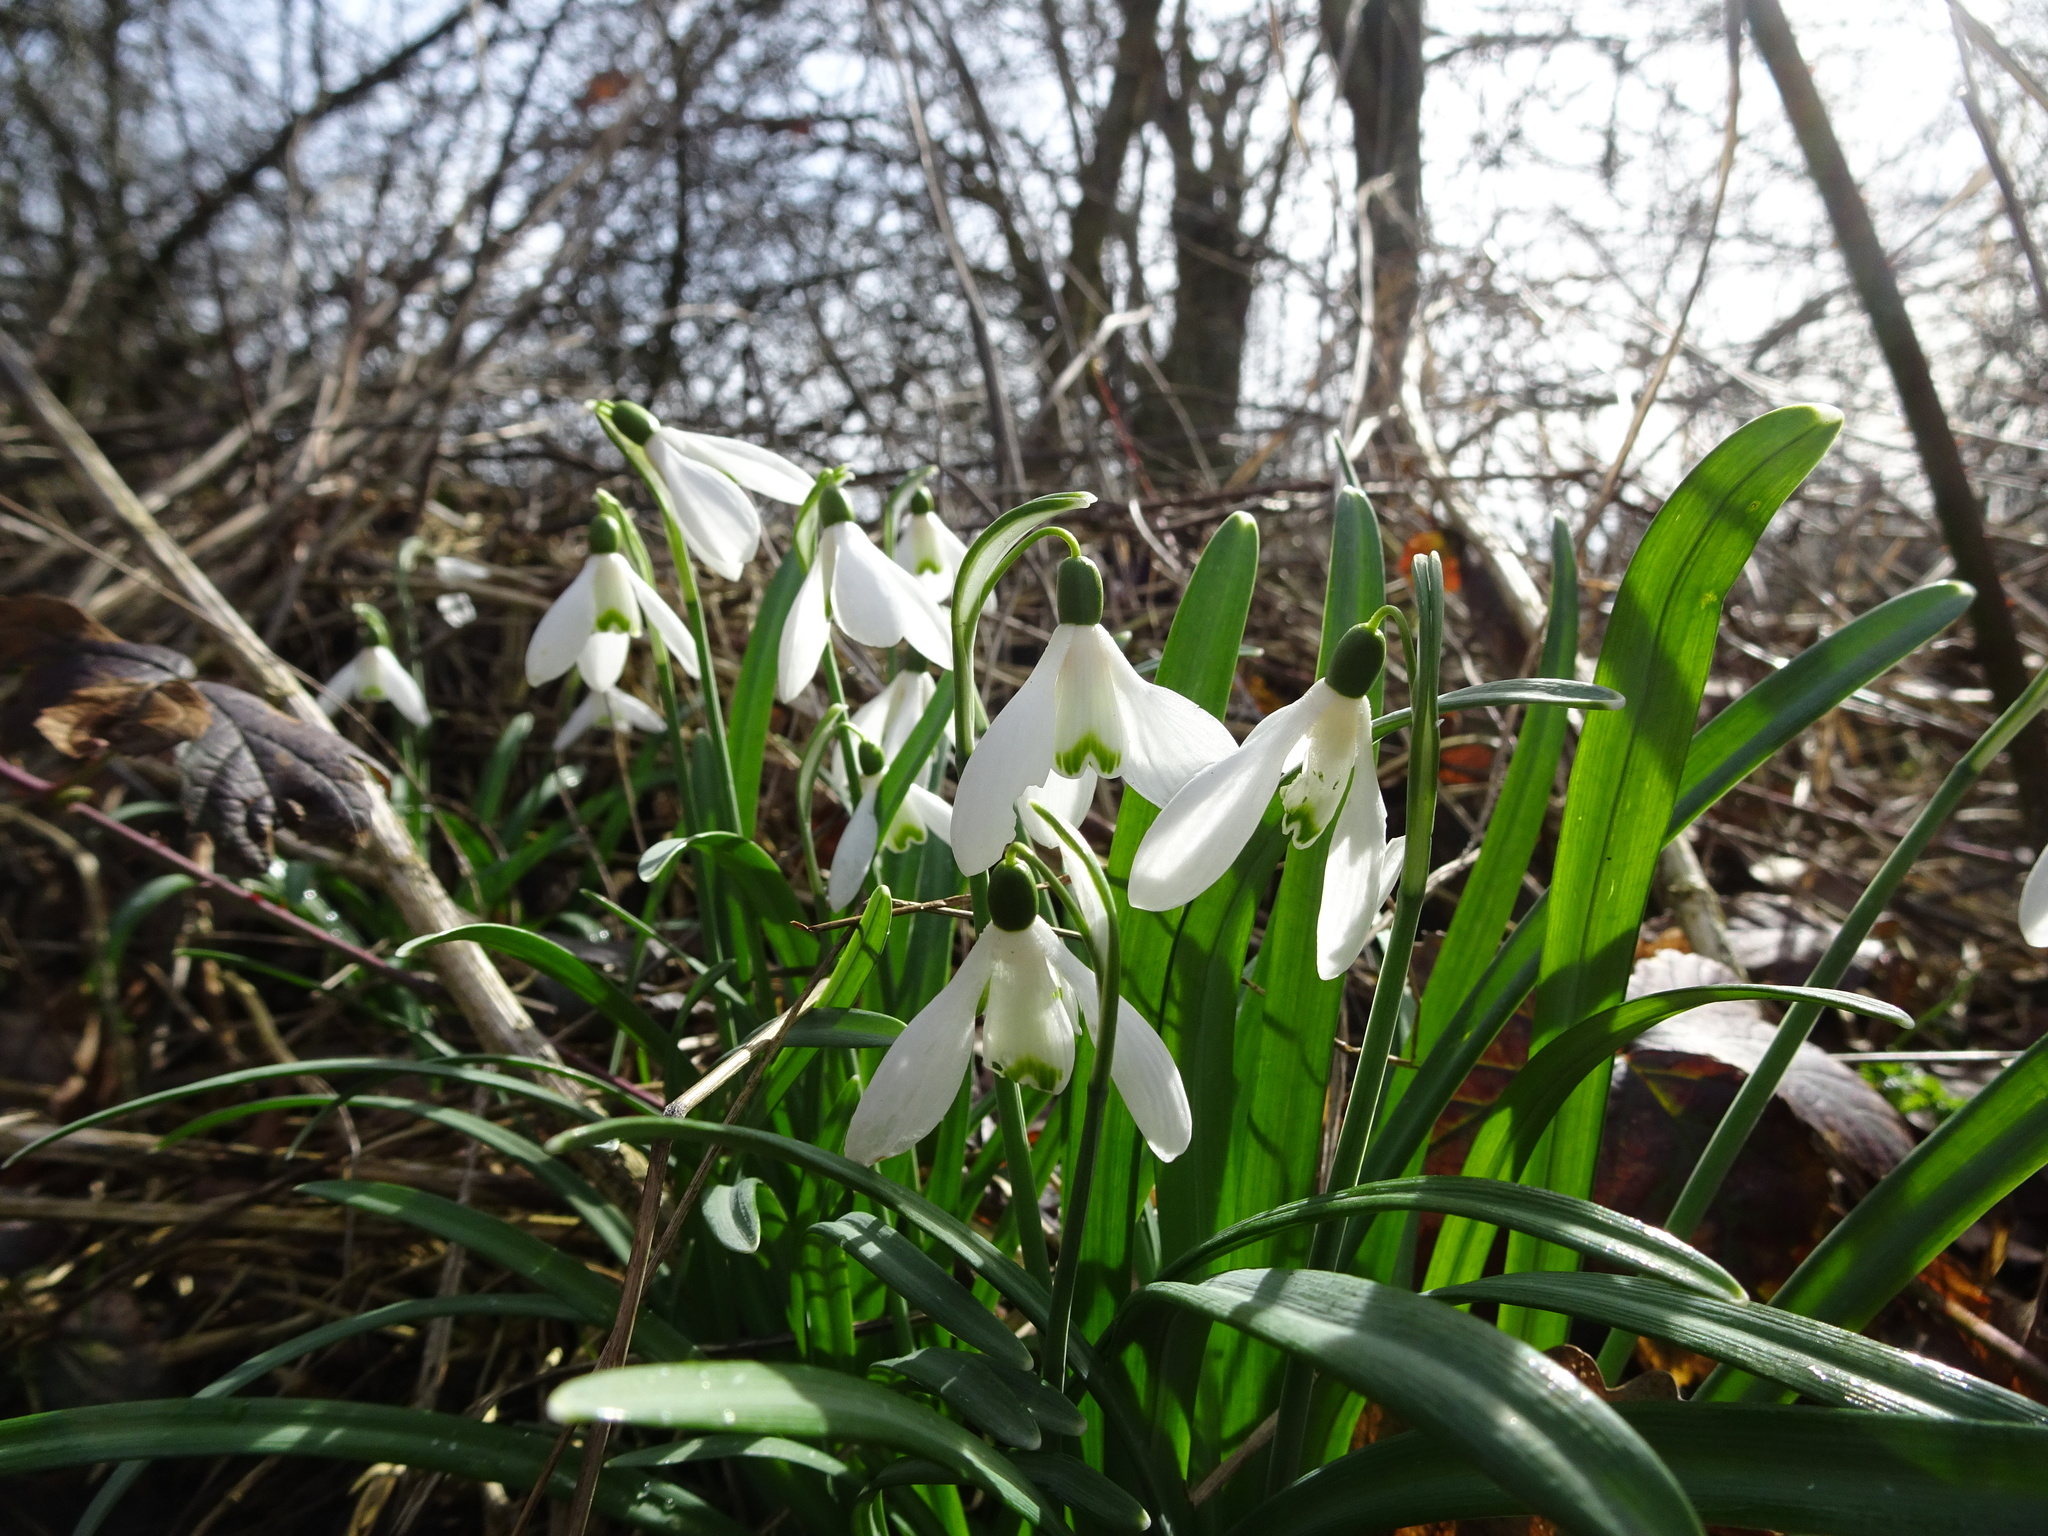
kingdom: Plantae
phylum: Tracheophyta
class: Liliopsida
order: Asparagales
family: Amaryllidaceae
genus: Galanthus
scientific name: Galanthus nivalis
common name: Snowdrop
